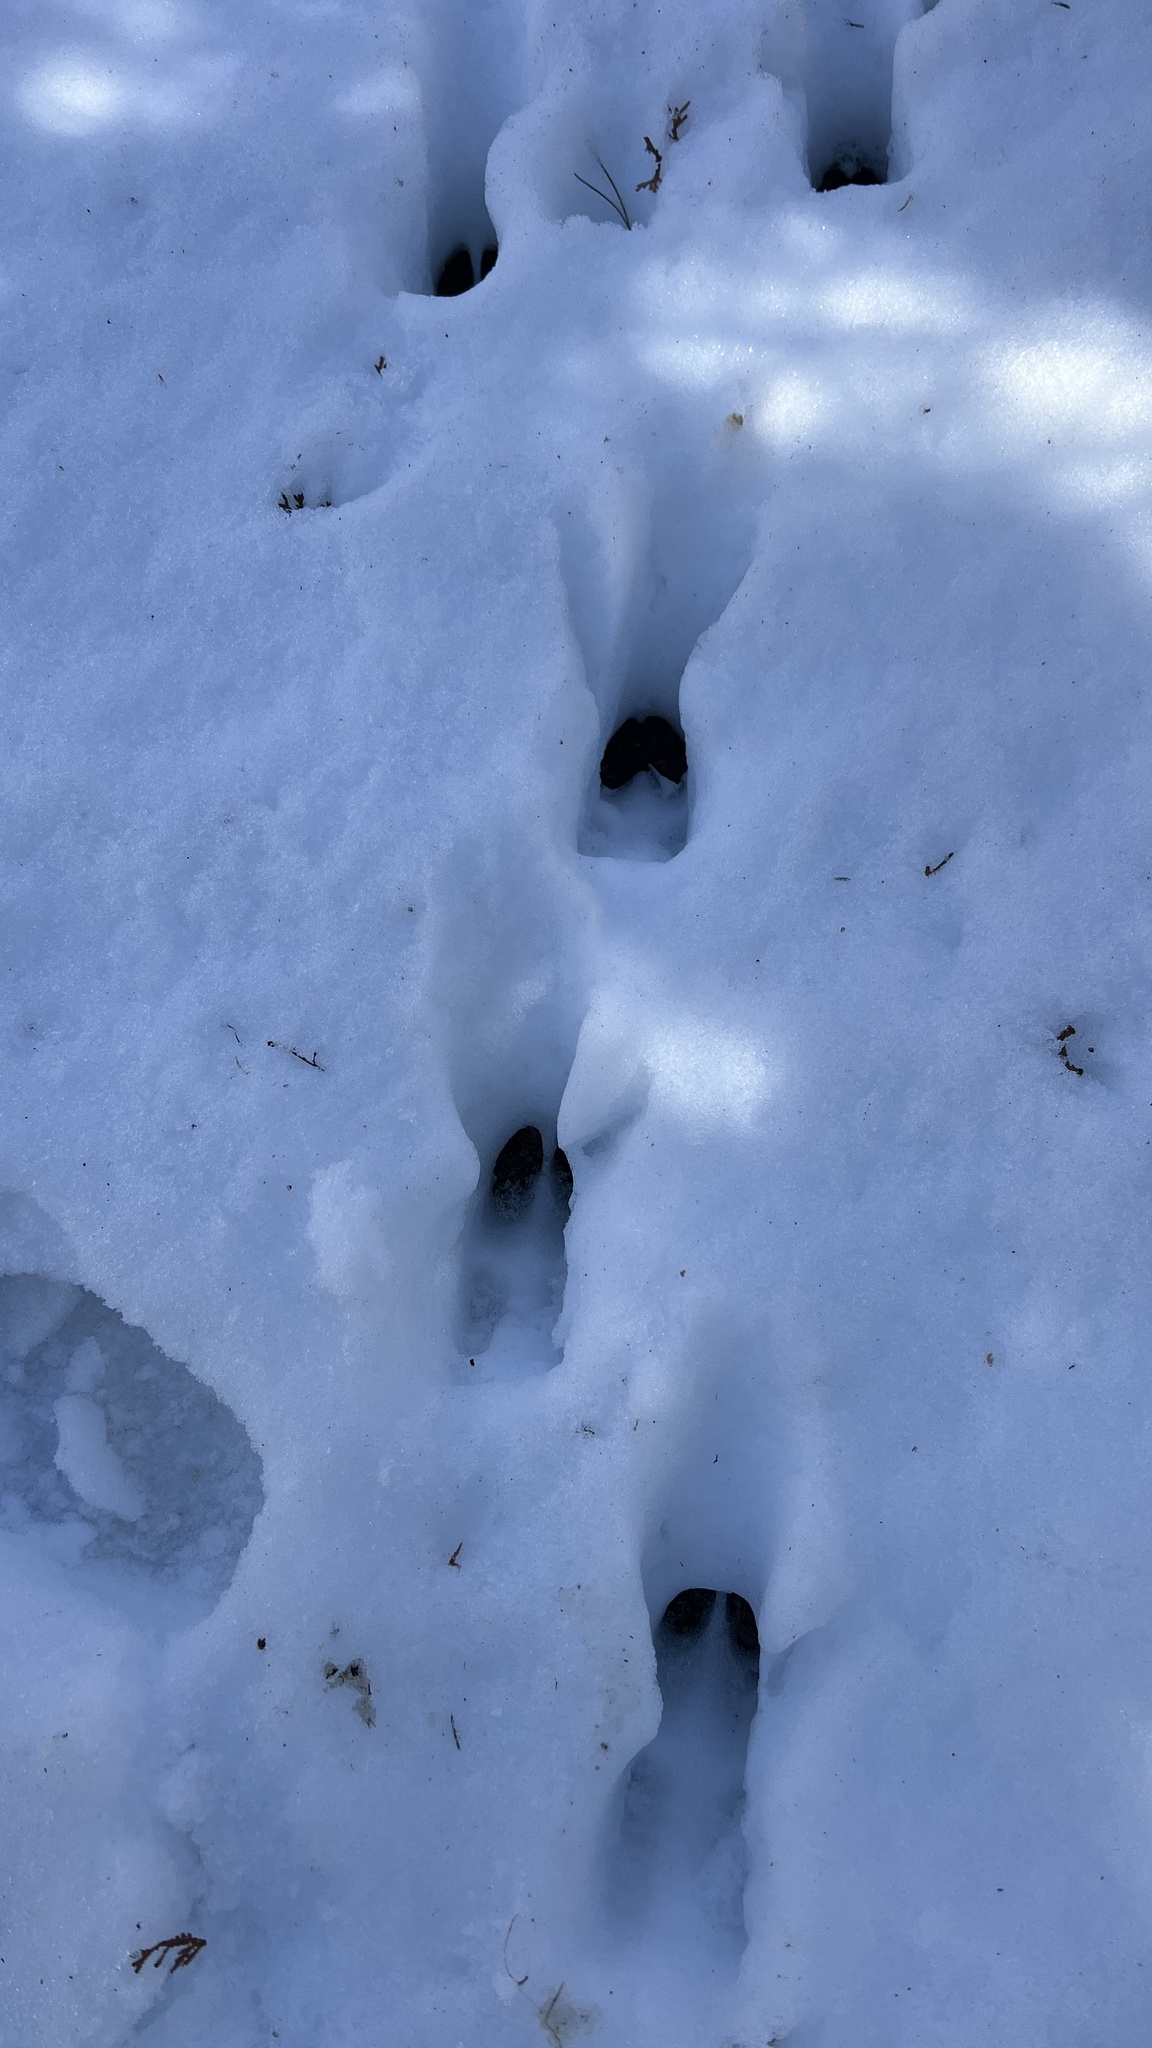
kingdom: Animalia
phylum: Chordata
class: Mammalia
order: Artiodactyla
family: Cervidae
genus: Odocoileus
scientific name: Odocoileus virginianus
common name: White-tailed deer
